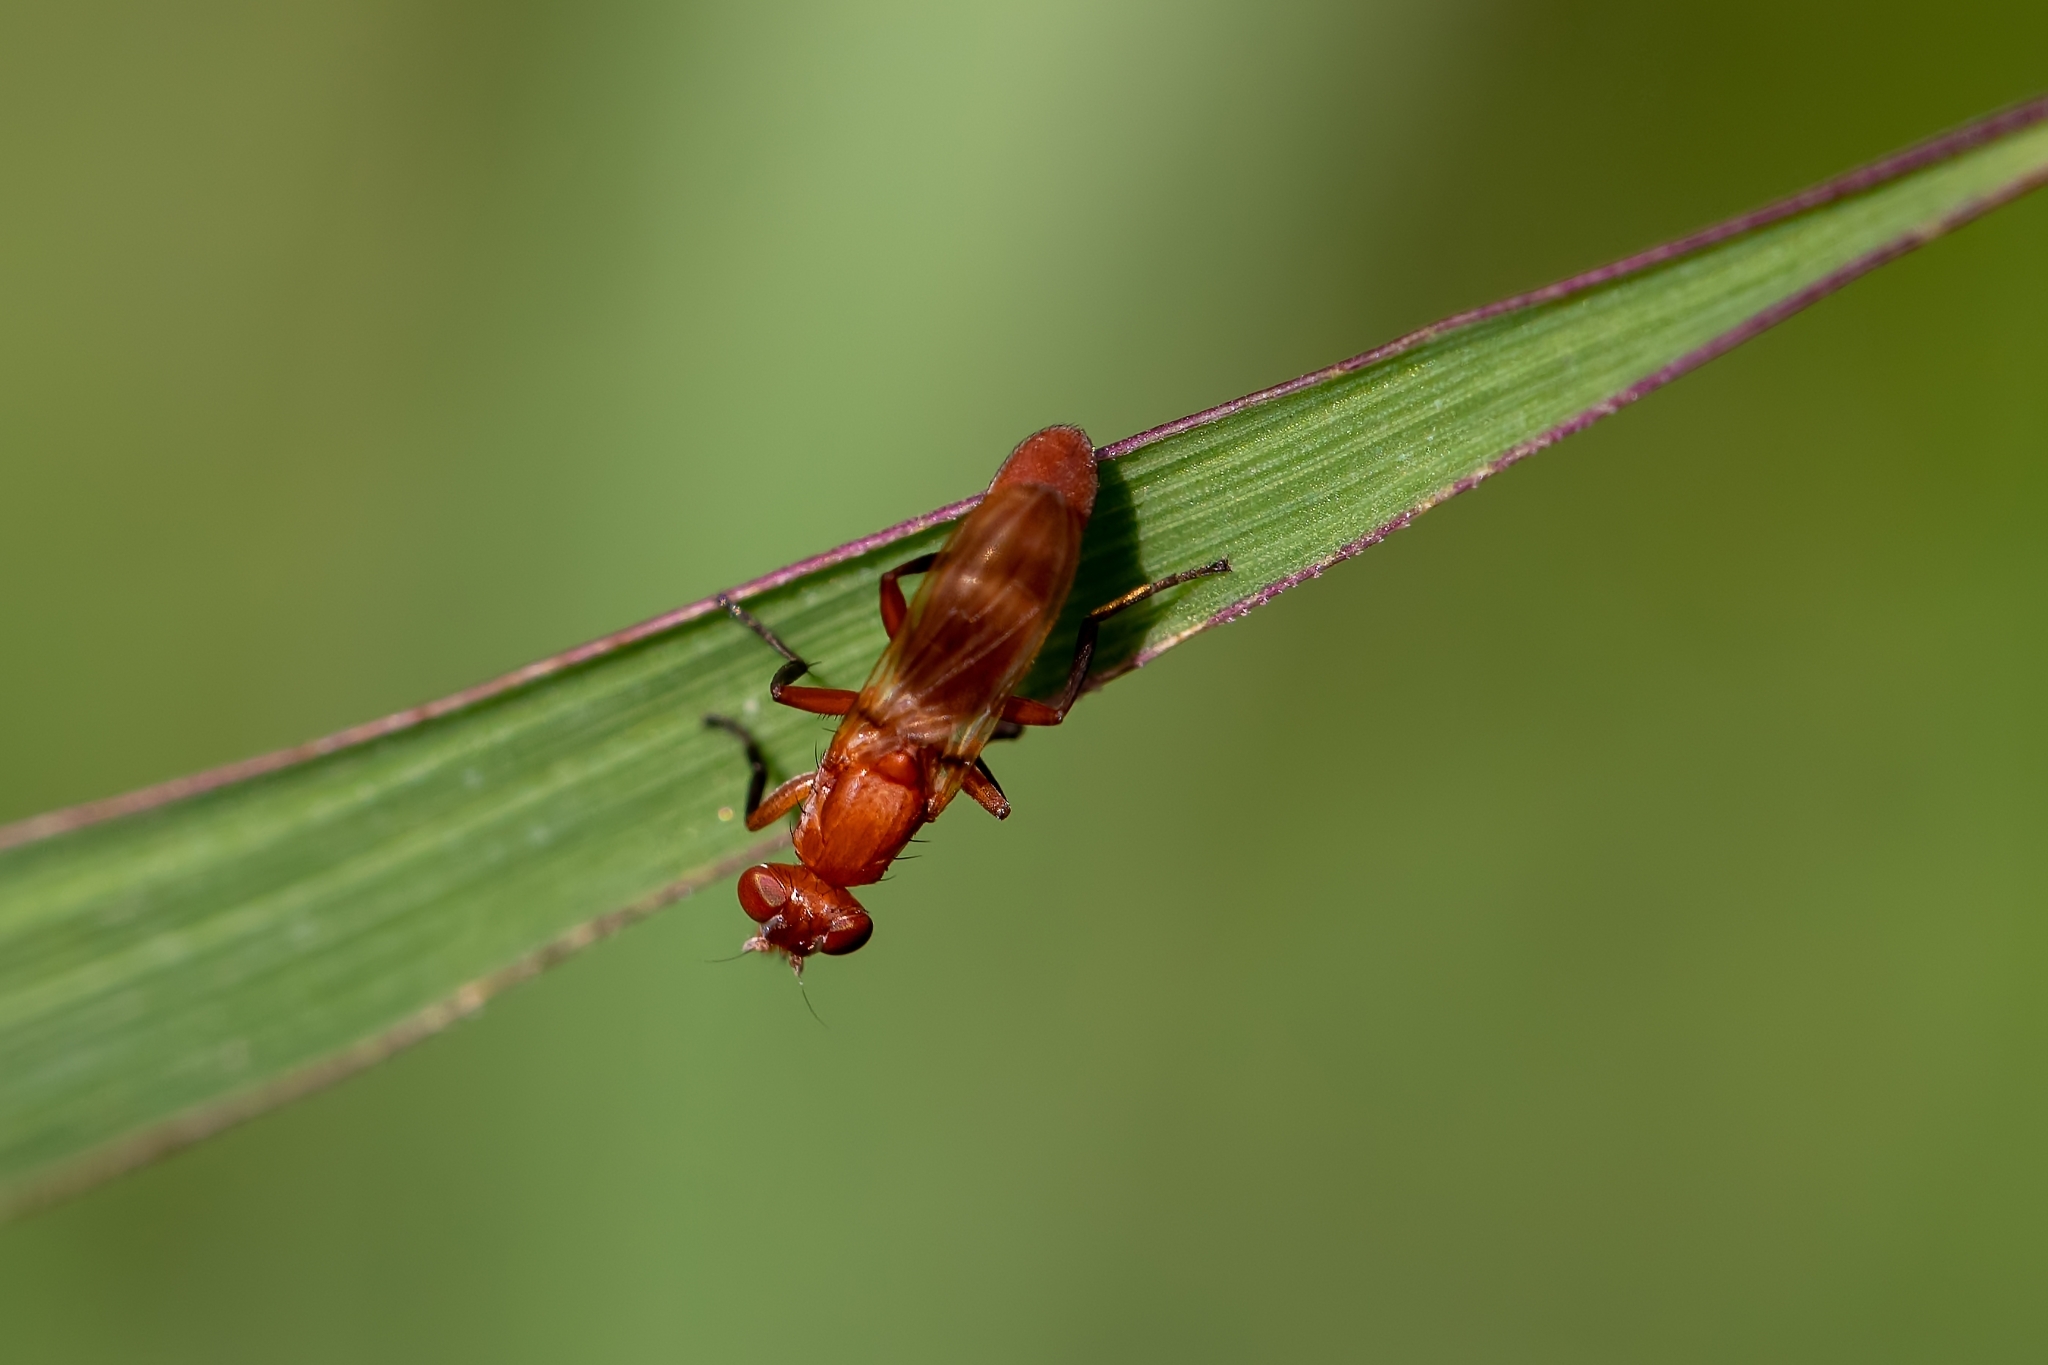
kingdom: Animalia
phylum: Arthropoda
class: Insecta
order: Diptera
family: Ulidiidae
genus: Zacompsia
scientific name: Zacompsia fulva
